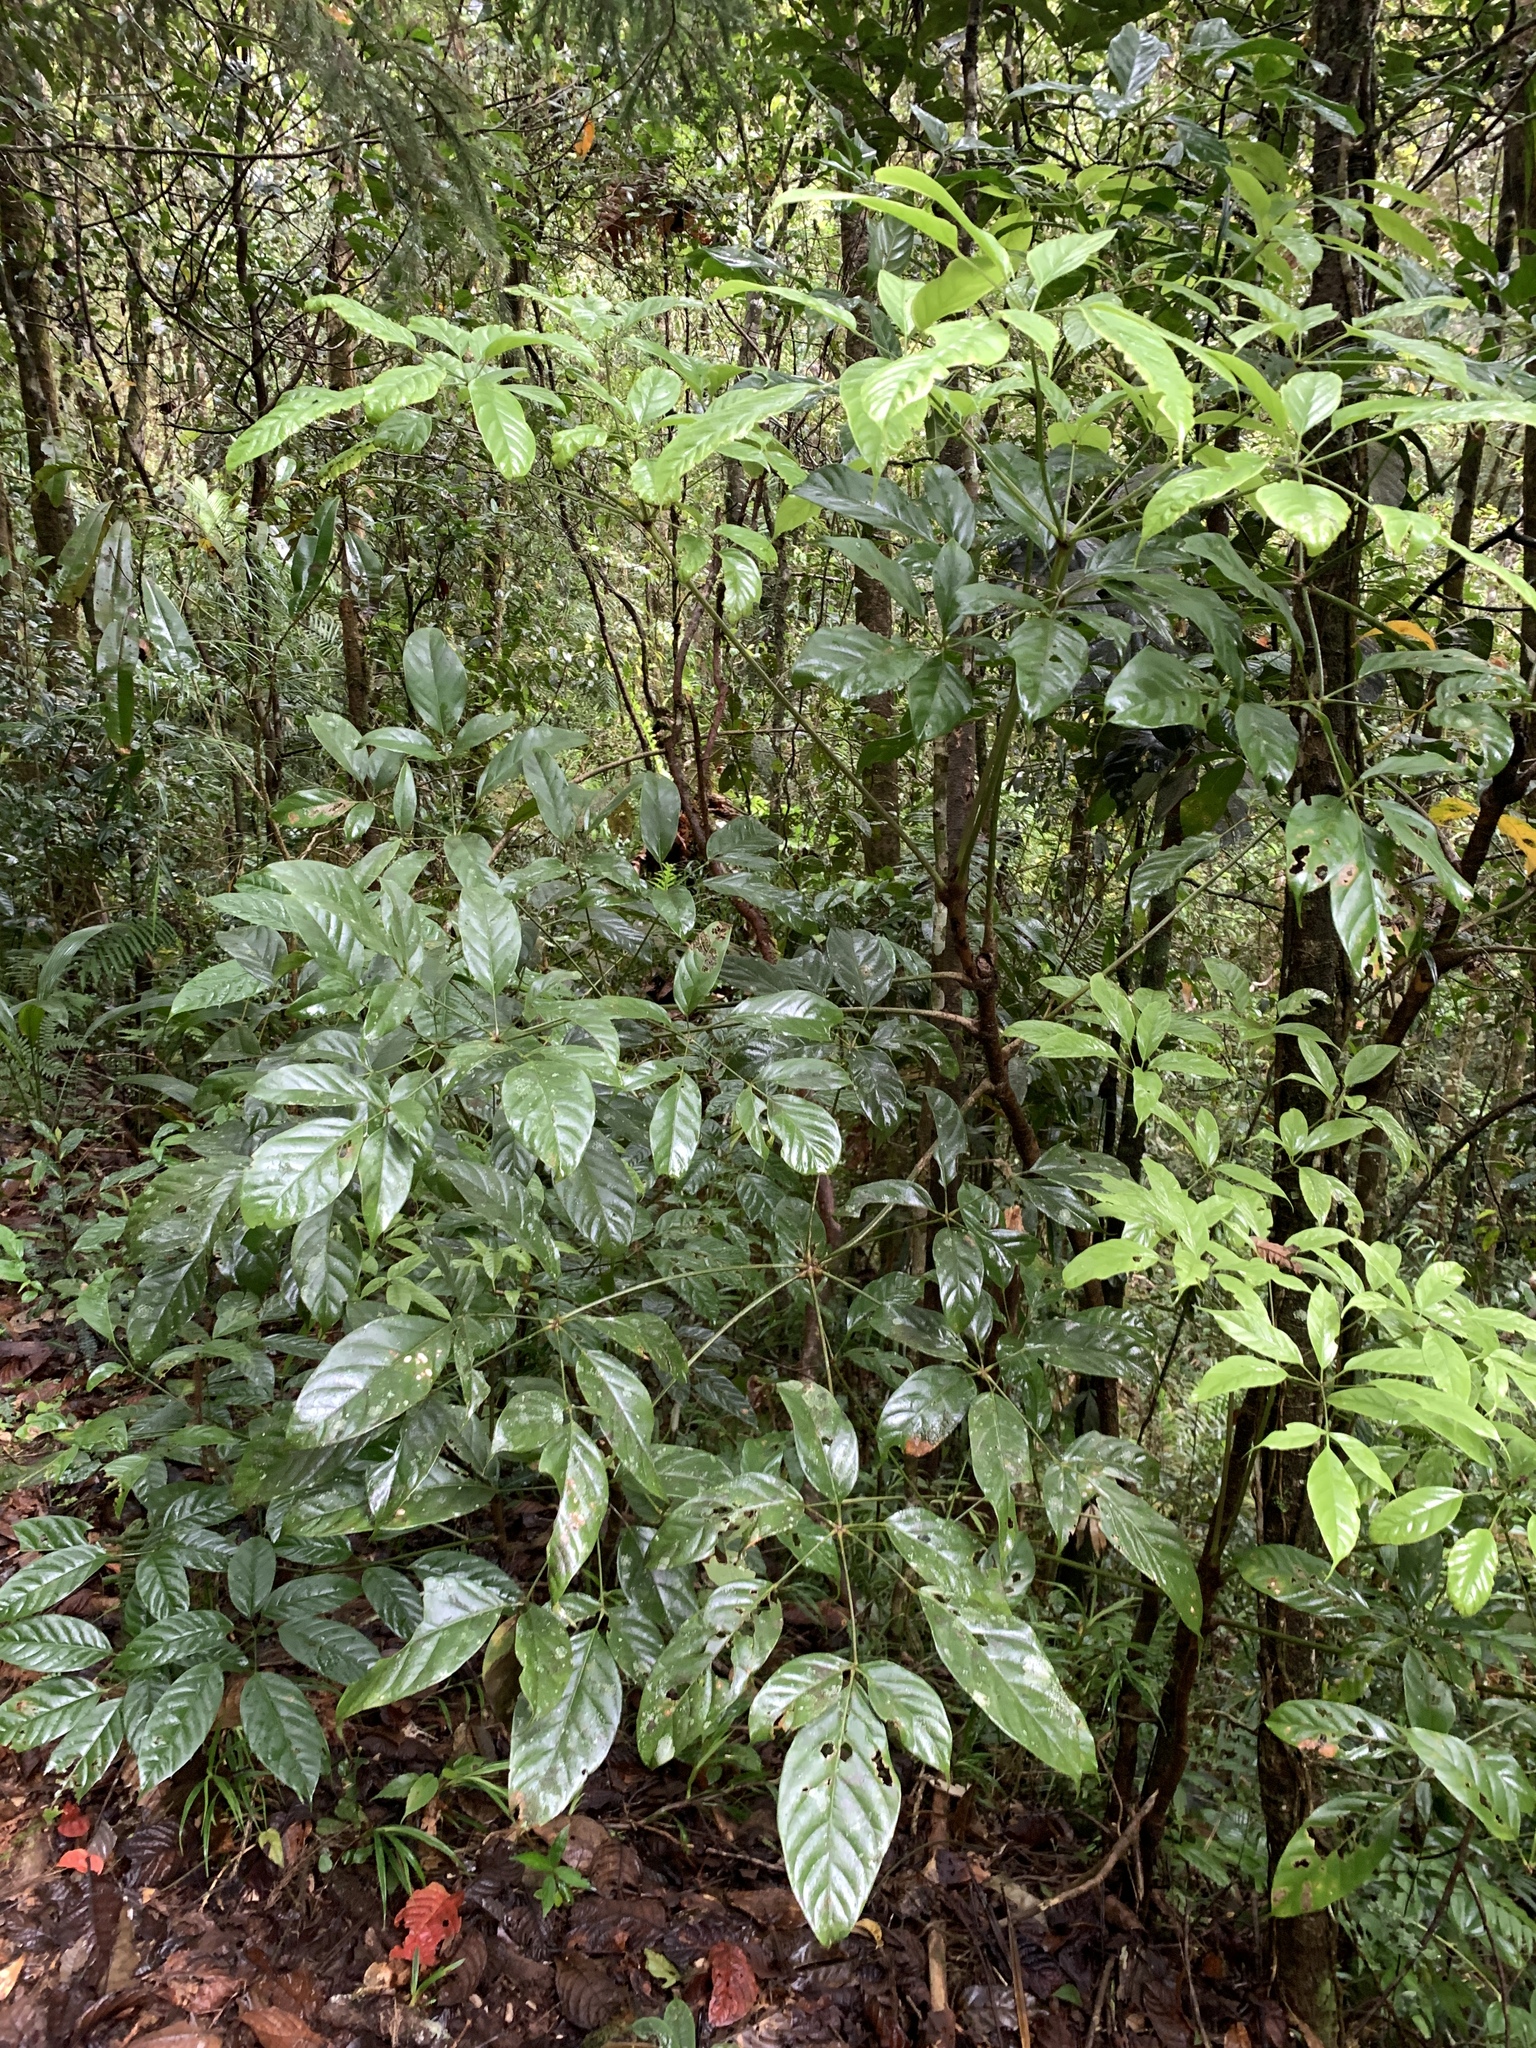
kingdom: Plantae
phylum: Tracheophyta
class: Magnoliopsida
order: Apiales
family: Araliaceae
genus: Heptapleurum
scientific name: Heptapleurum bipalmatifolium
